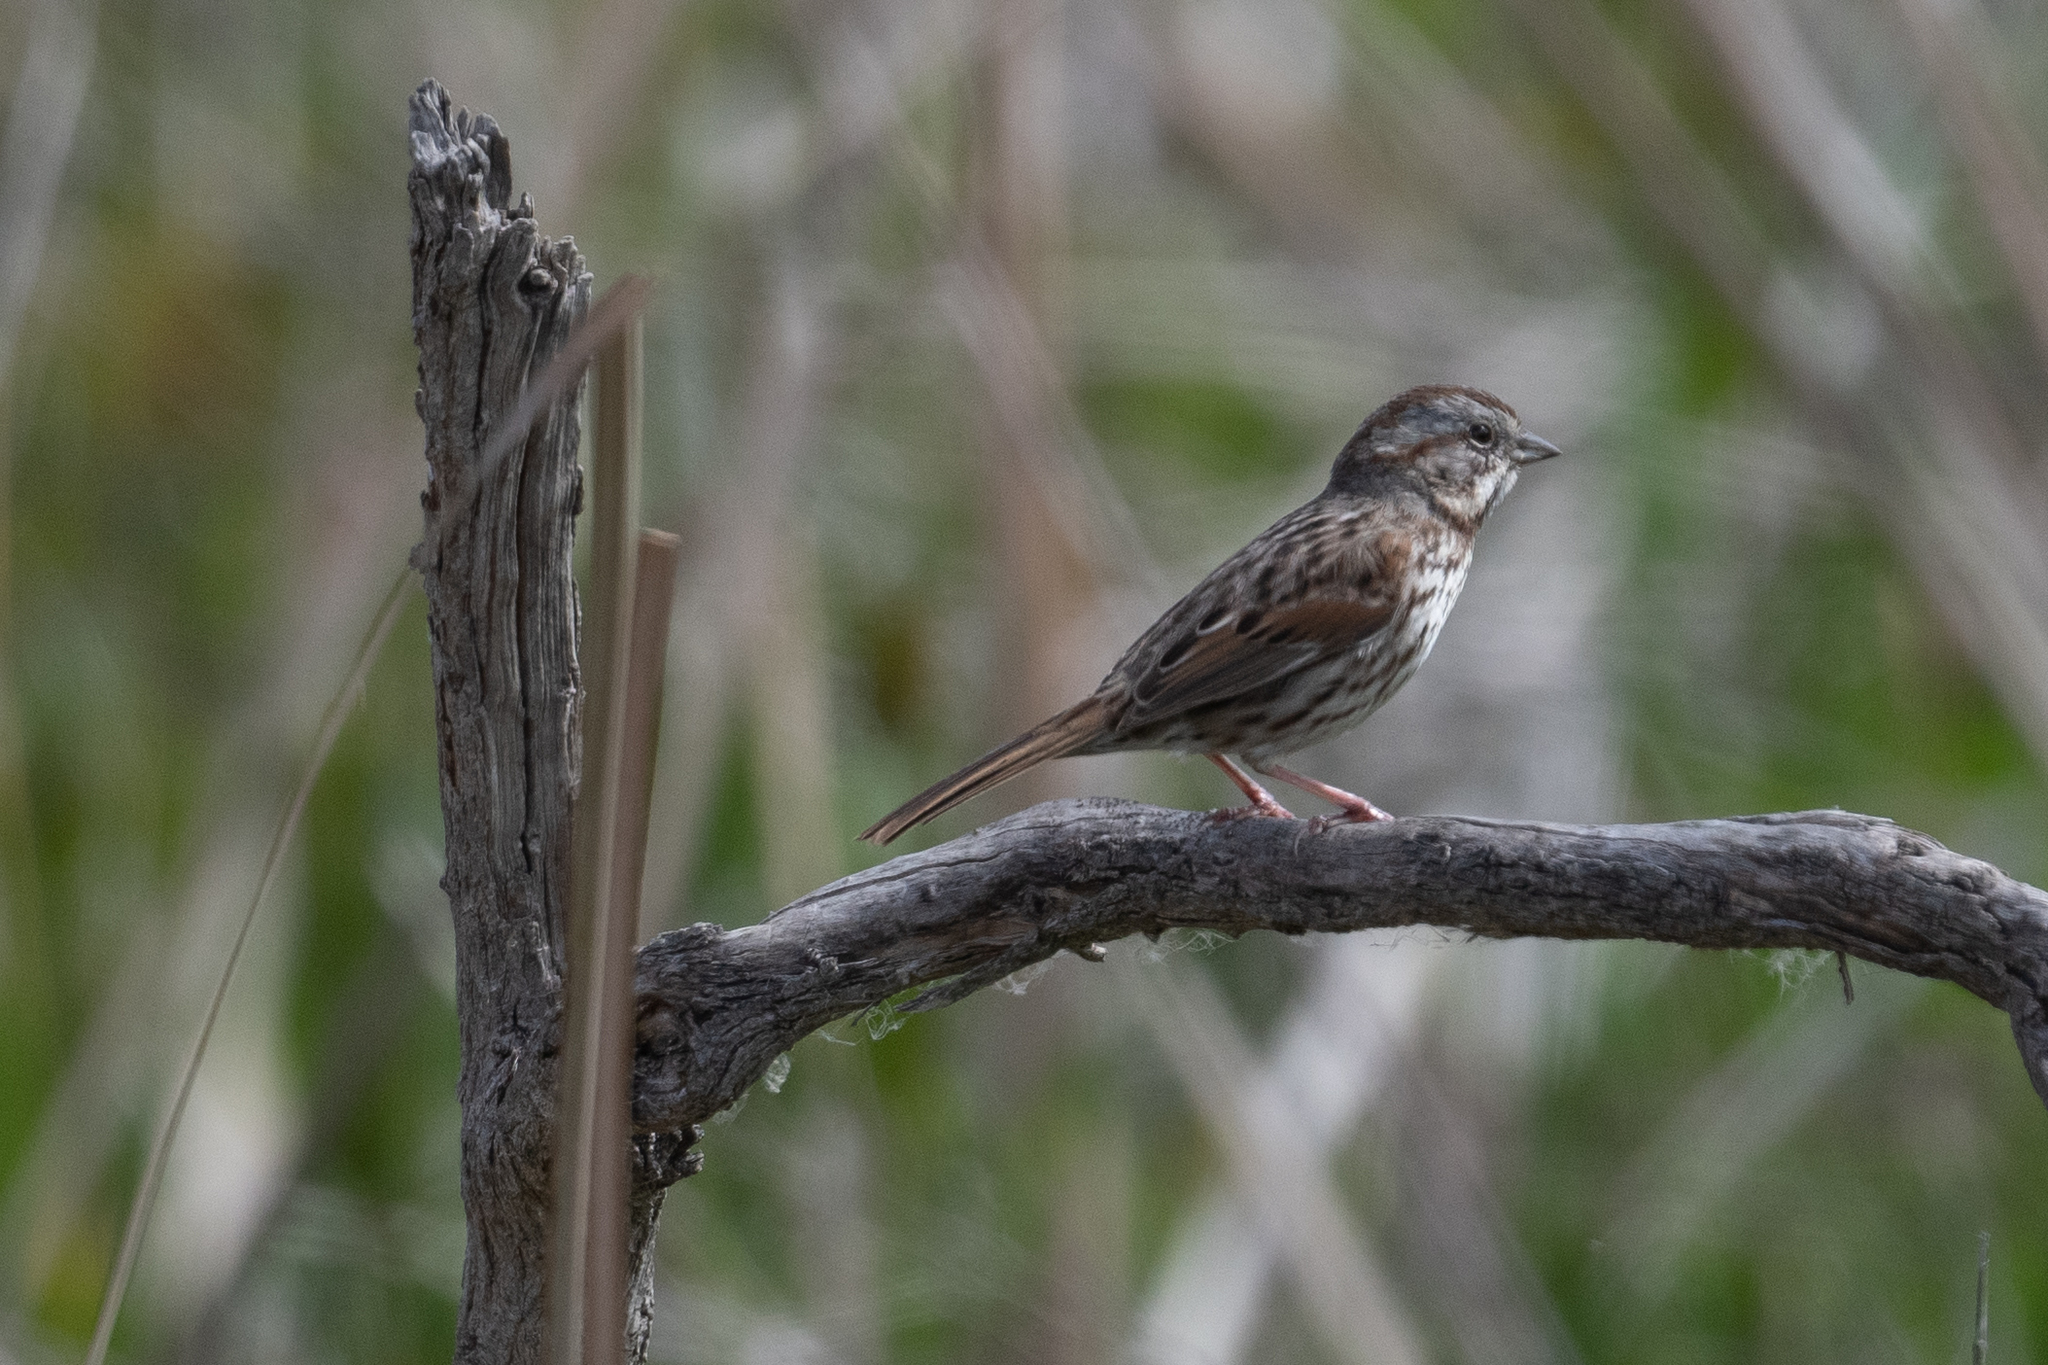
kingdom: Animalia
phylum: Chordata
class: Aves
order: Passeriformes
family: Passerellidae
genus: Melospiza
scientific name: Melospiza melodia
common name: Song sparrow
